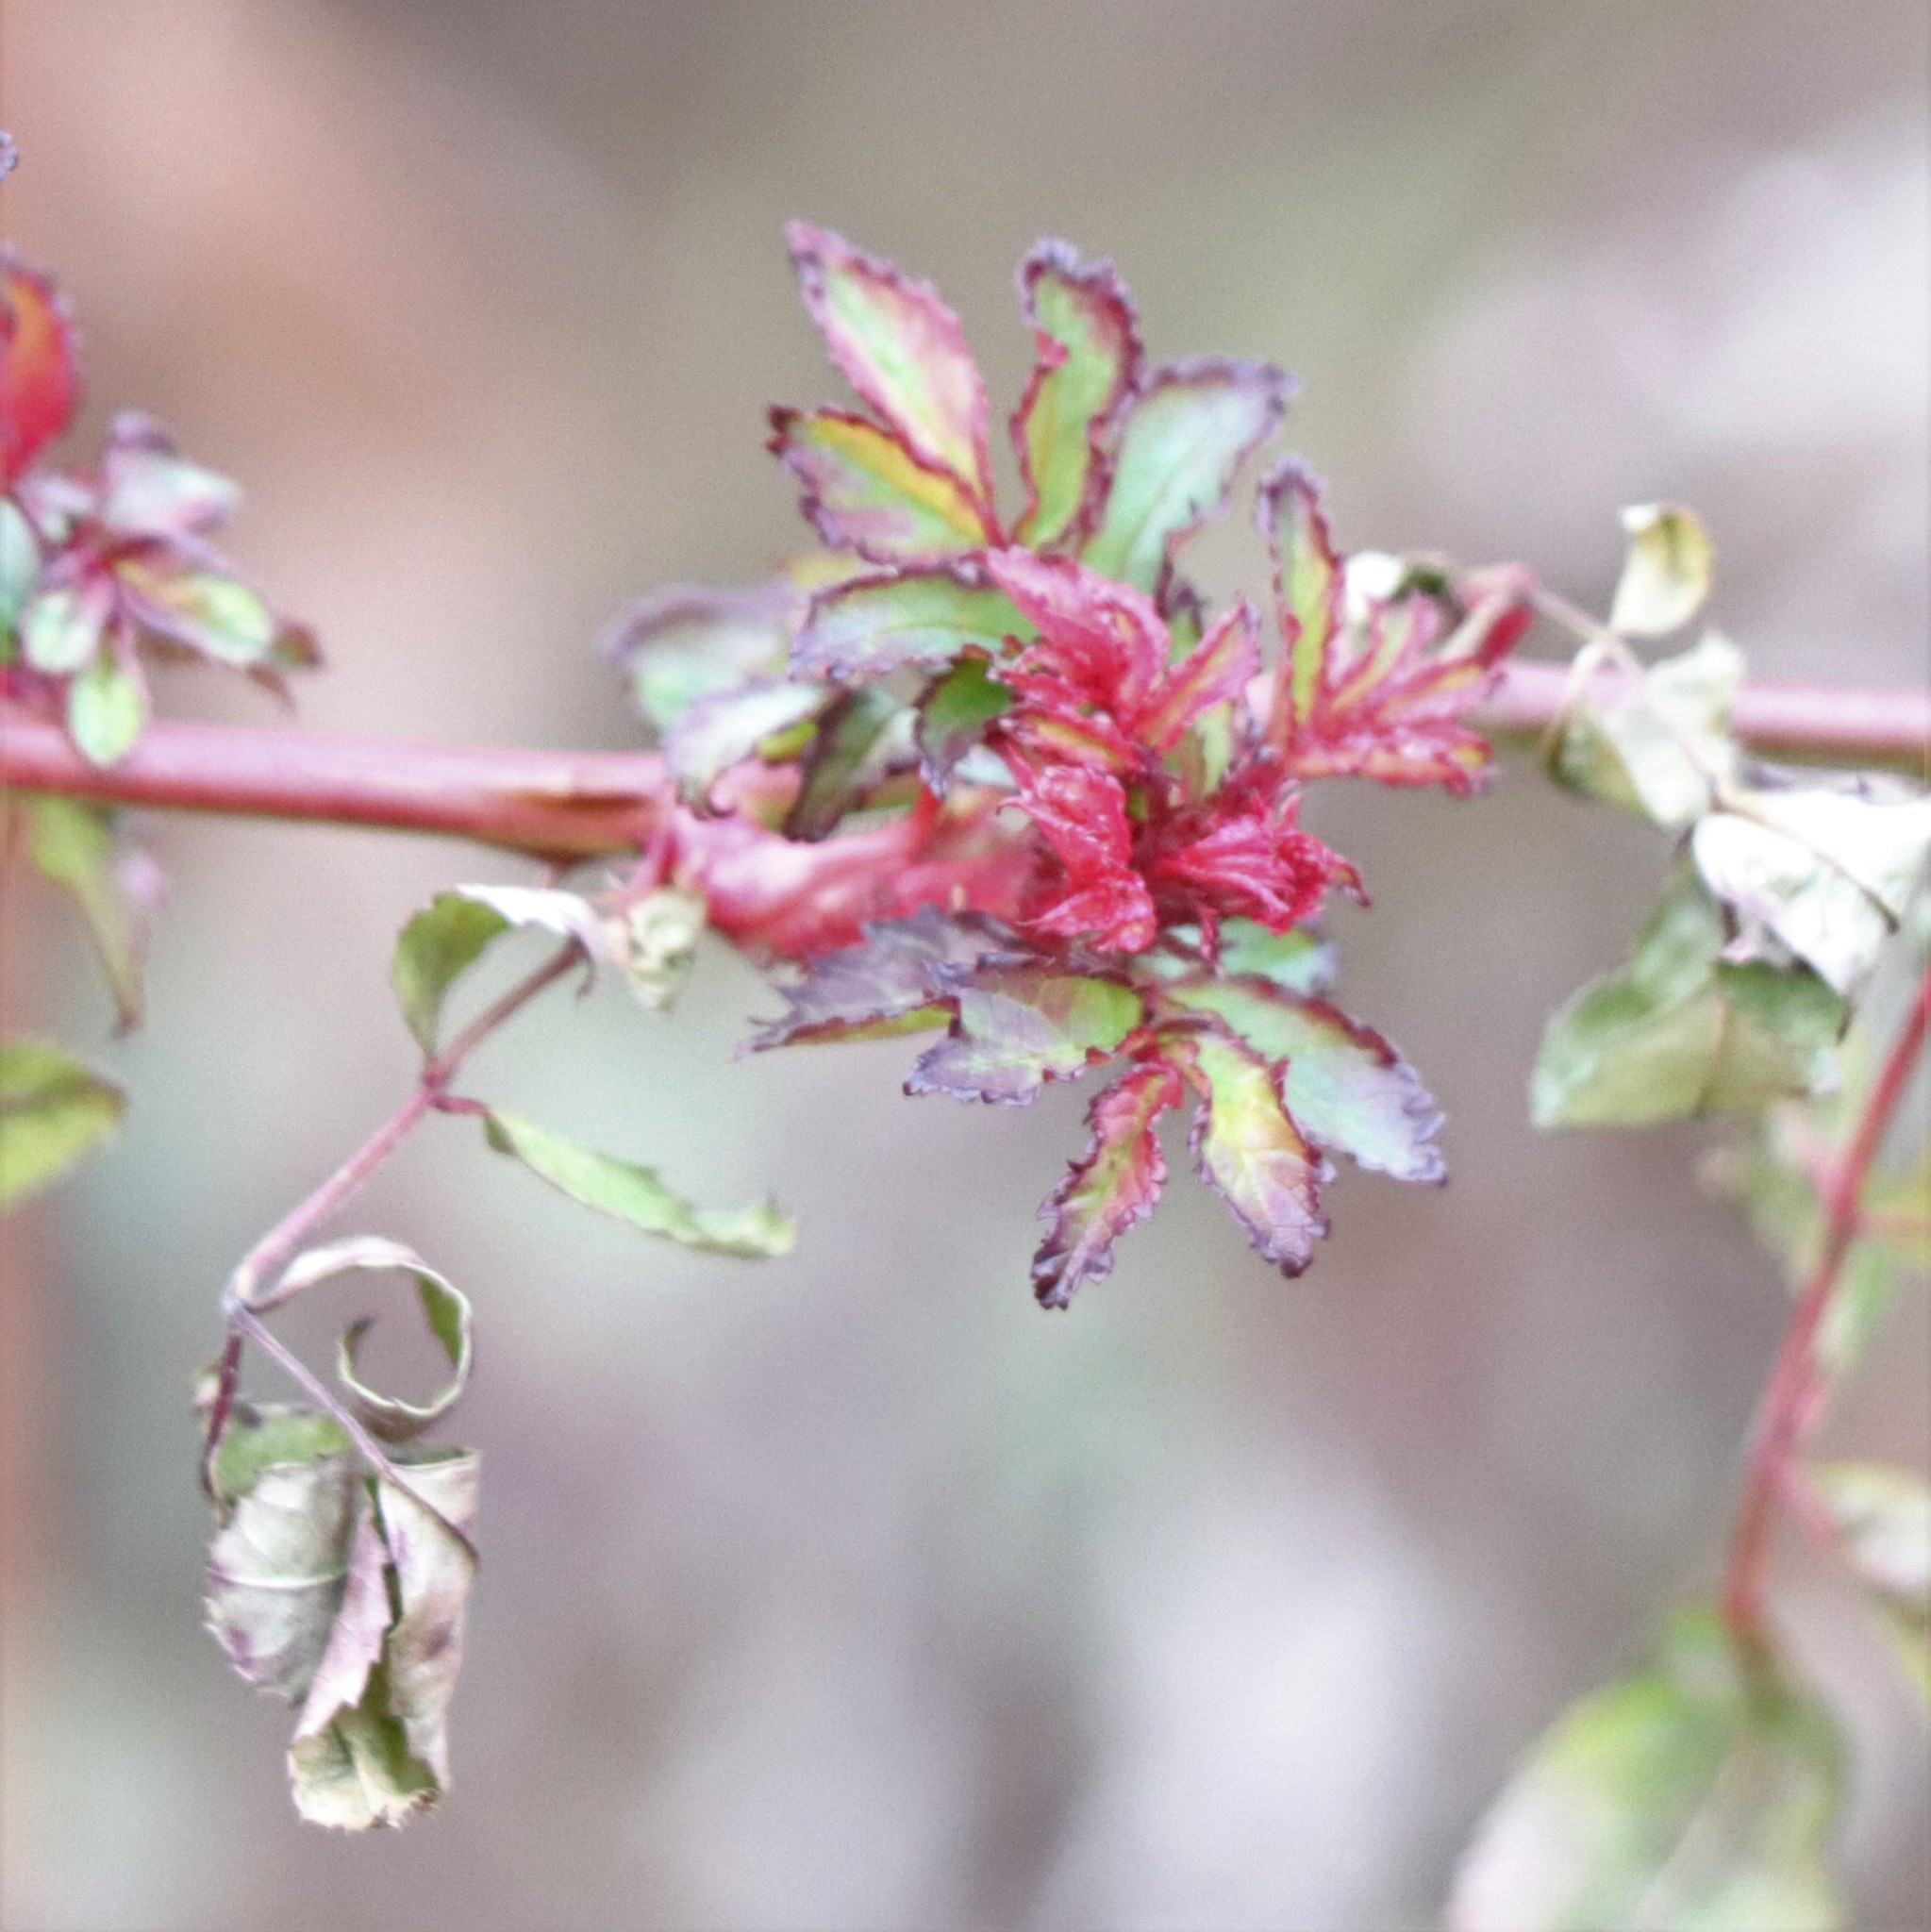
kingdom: Viruses
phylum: Negarnaviricota
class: Ellioviricetes
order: Bunyavirales
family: Fimoviridae
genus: Emaravirus
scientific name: Emaravirus rosae
